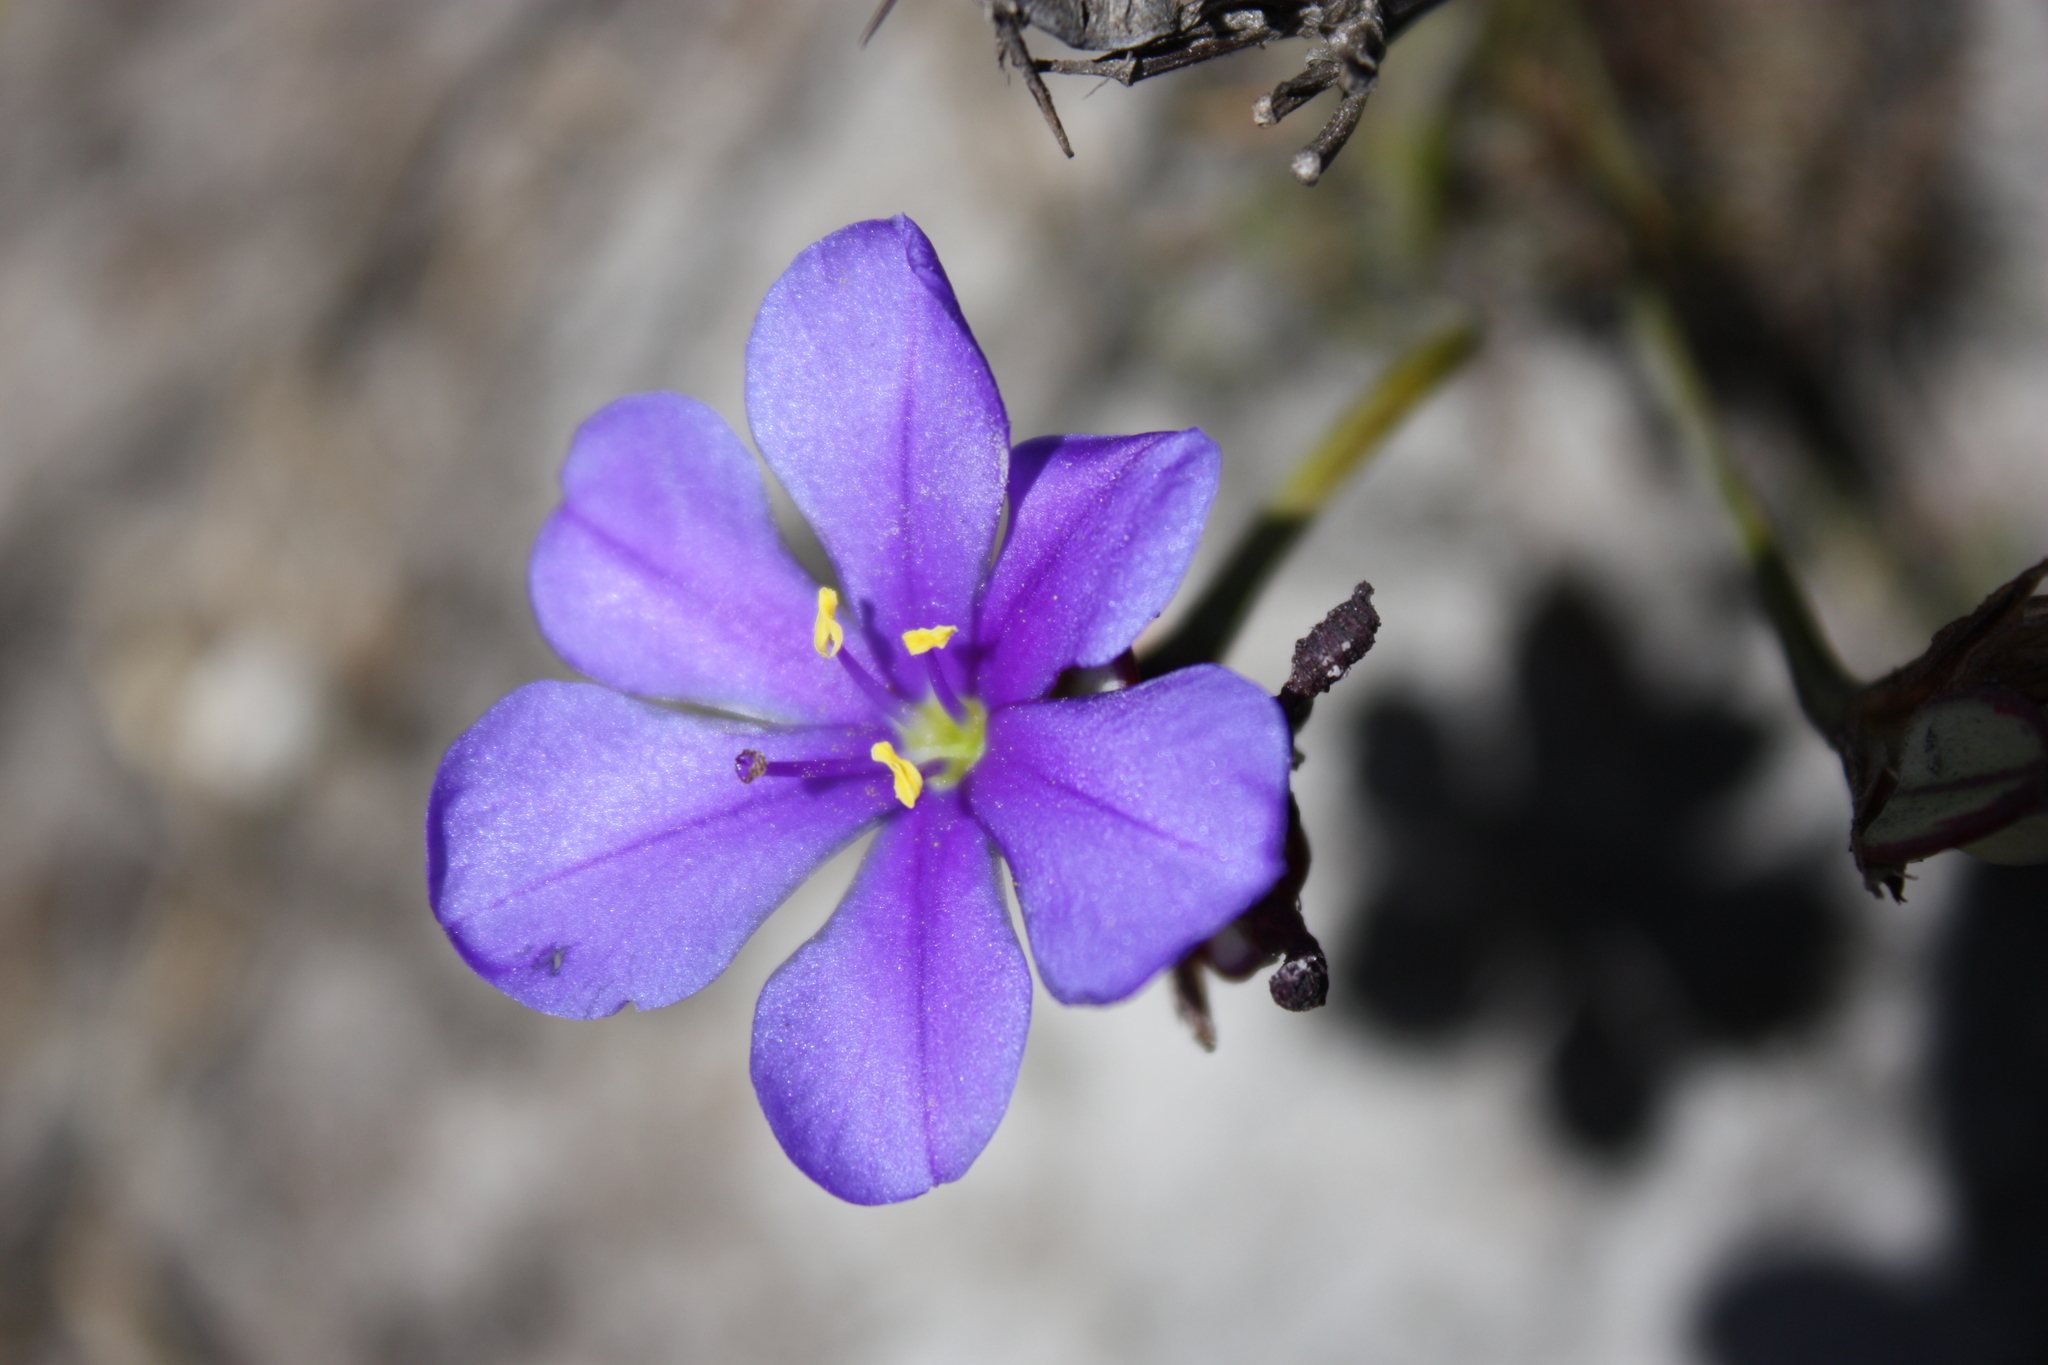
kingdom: Plantae
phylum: Tracheophyta
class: Liliopsida
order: Asparagales
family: Iridaceae
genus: Aristea
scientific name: Aristea africana
